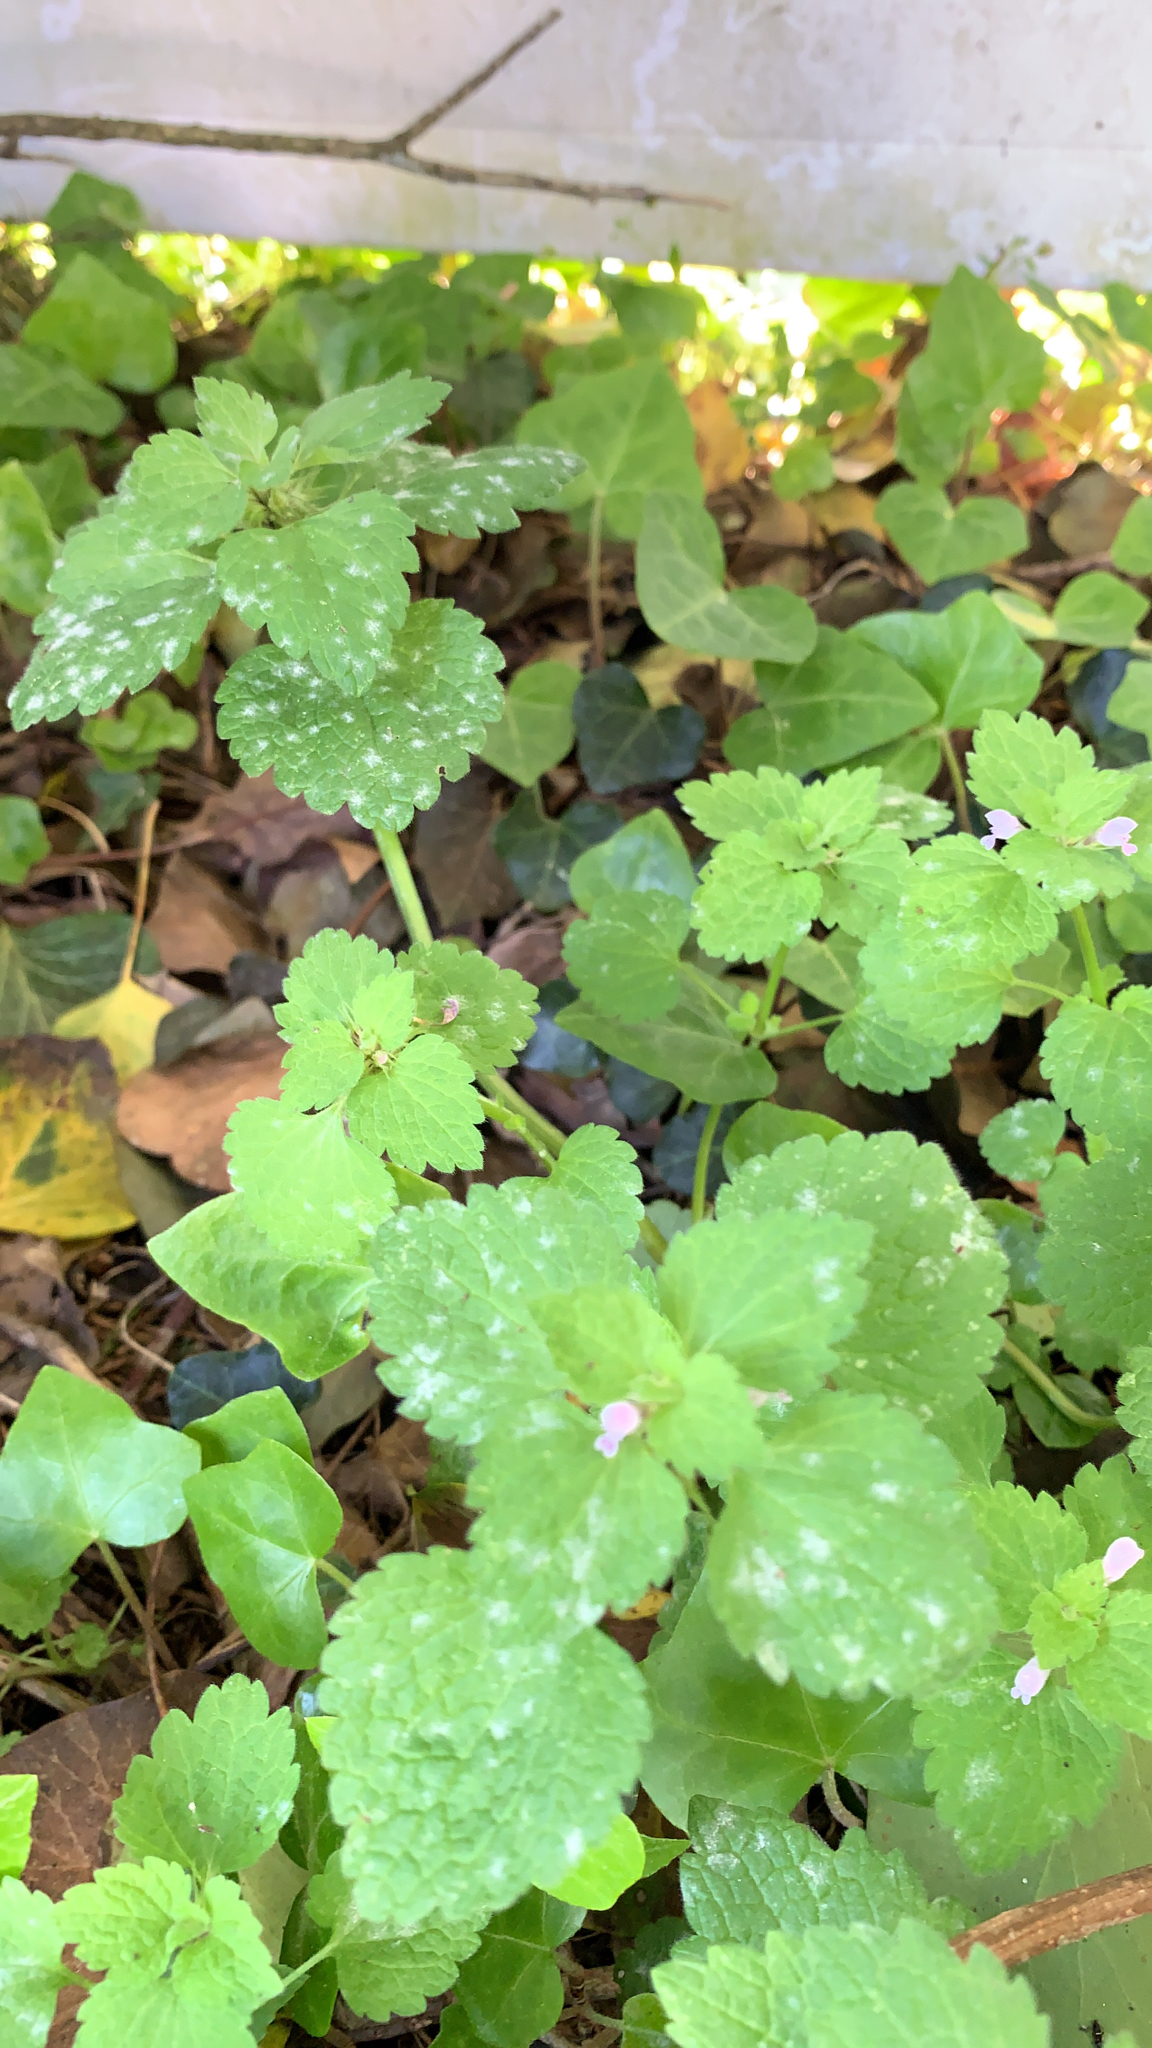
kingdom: Plantae
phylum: Tracheophyta
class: Magnoliopsida
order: Lamiales
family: Lamiaceae
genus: Lamium
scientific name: Lamium purpureum
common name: Red dead-nettle
